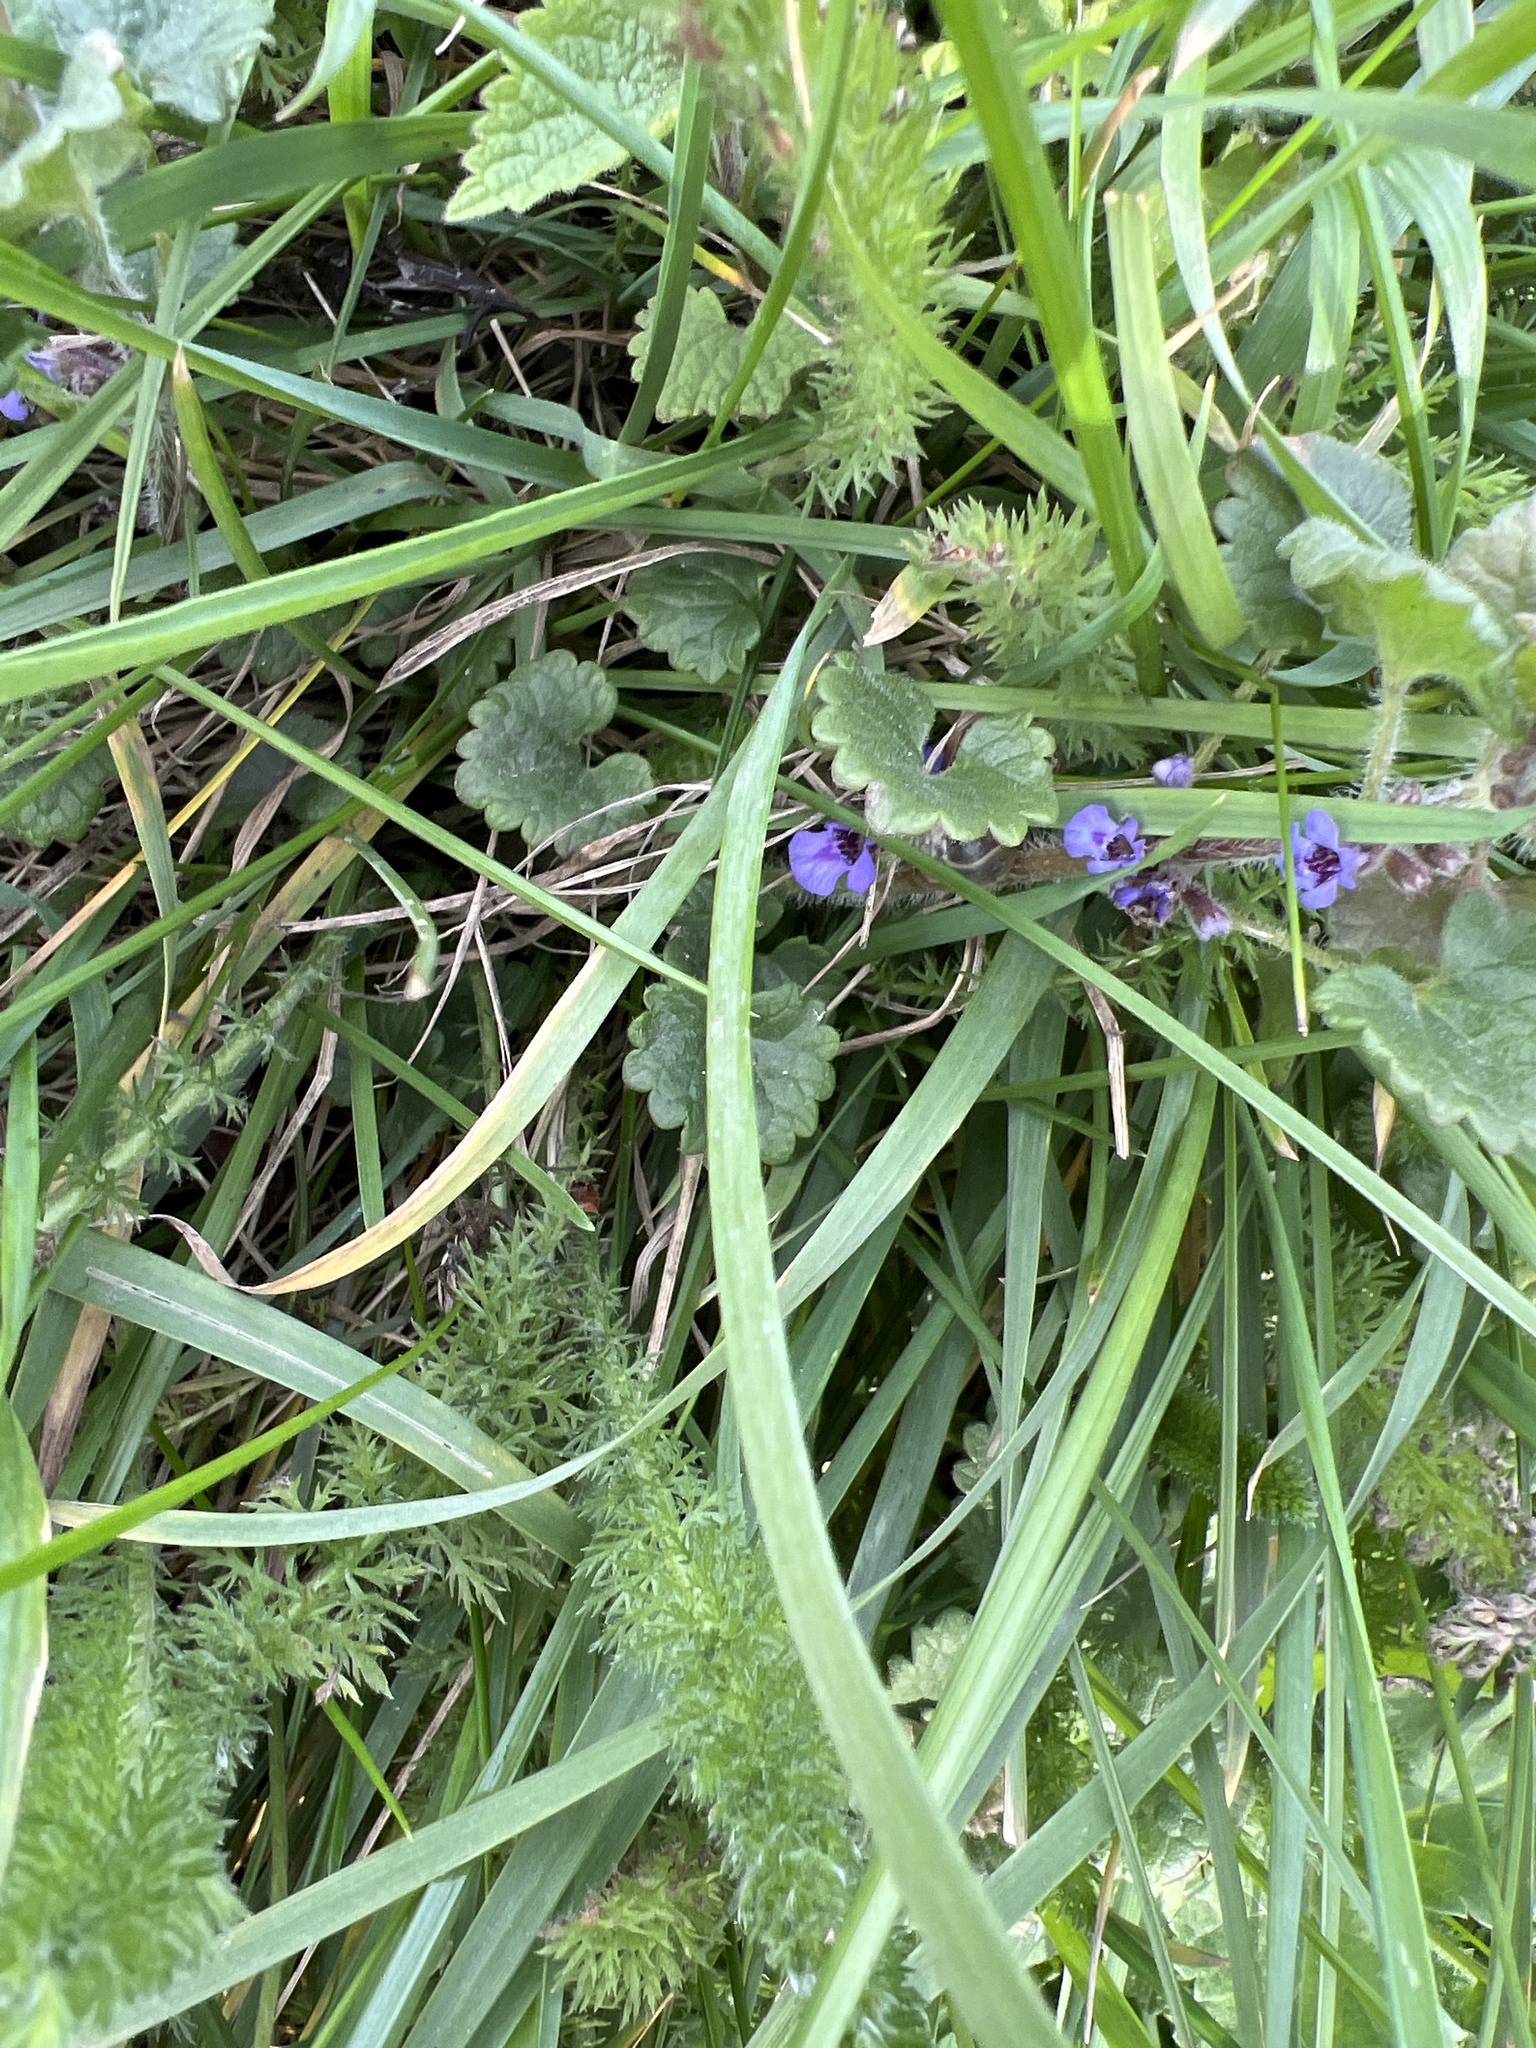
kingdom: Plantae
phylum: Tracheophyta
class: Magnoliopsida
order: Lamiales
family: Lamiaceae
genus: Glechoma
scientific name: Glechoma hederacea
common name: Ground ivy
